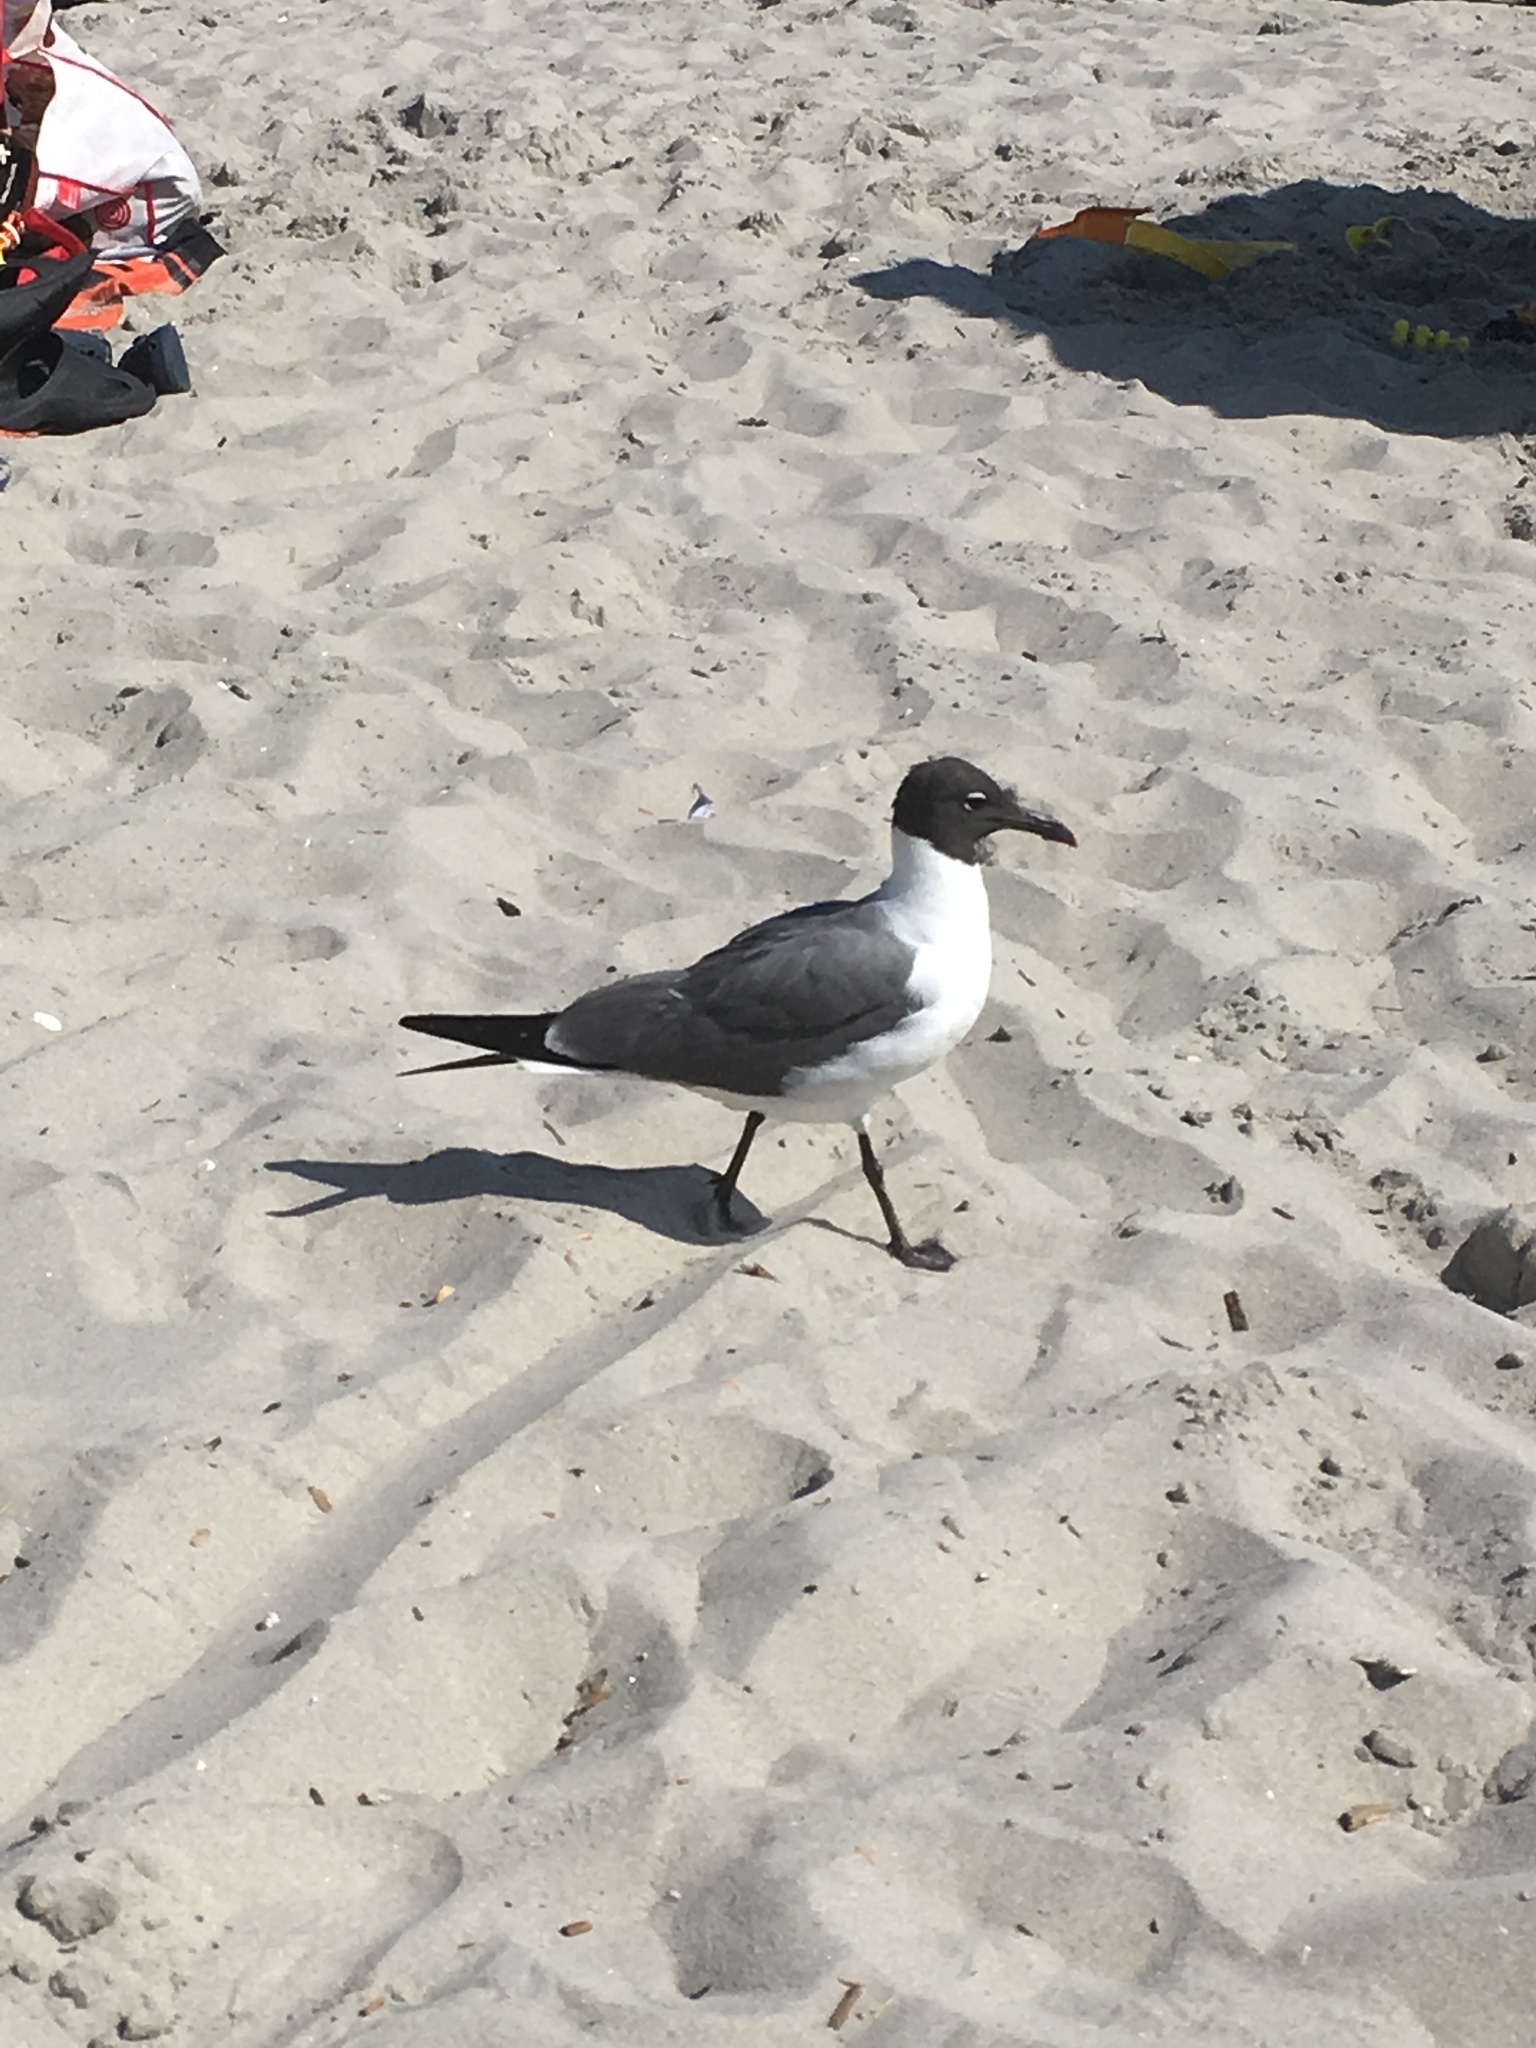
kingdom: Animalia
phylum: Chordata
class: Aves
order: Charadriiformes
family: Laridae
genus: Leucophaeus
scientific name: Leucophaeus atricilla
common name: Laughing gull
